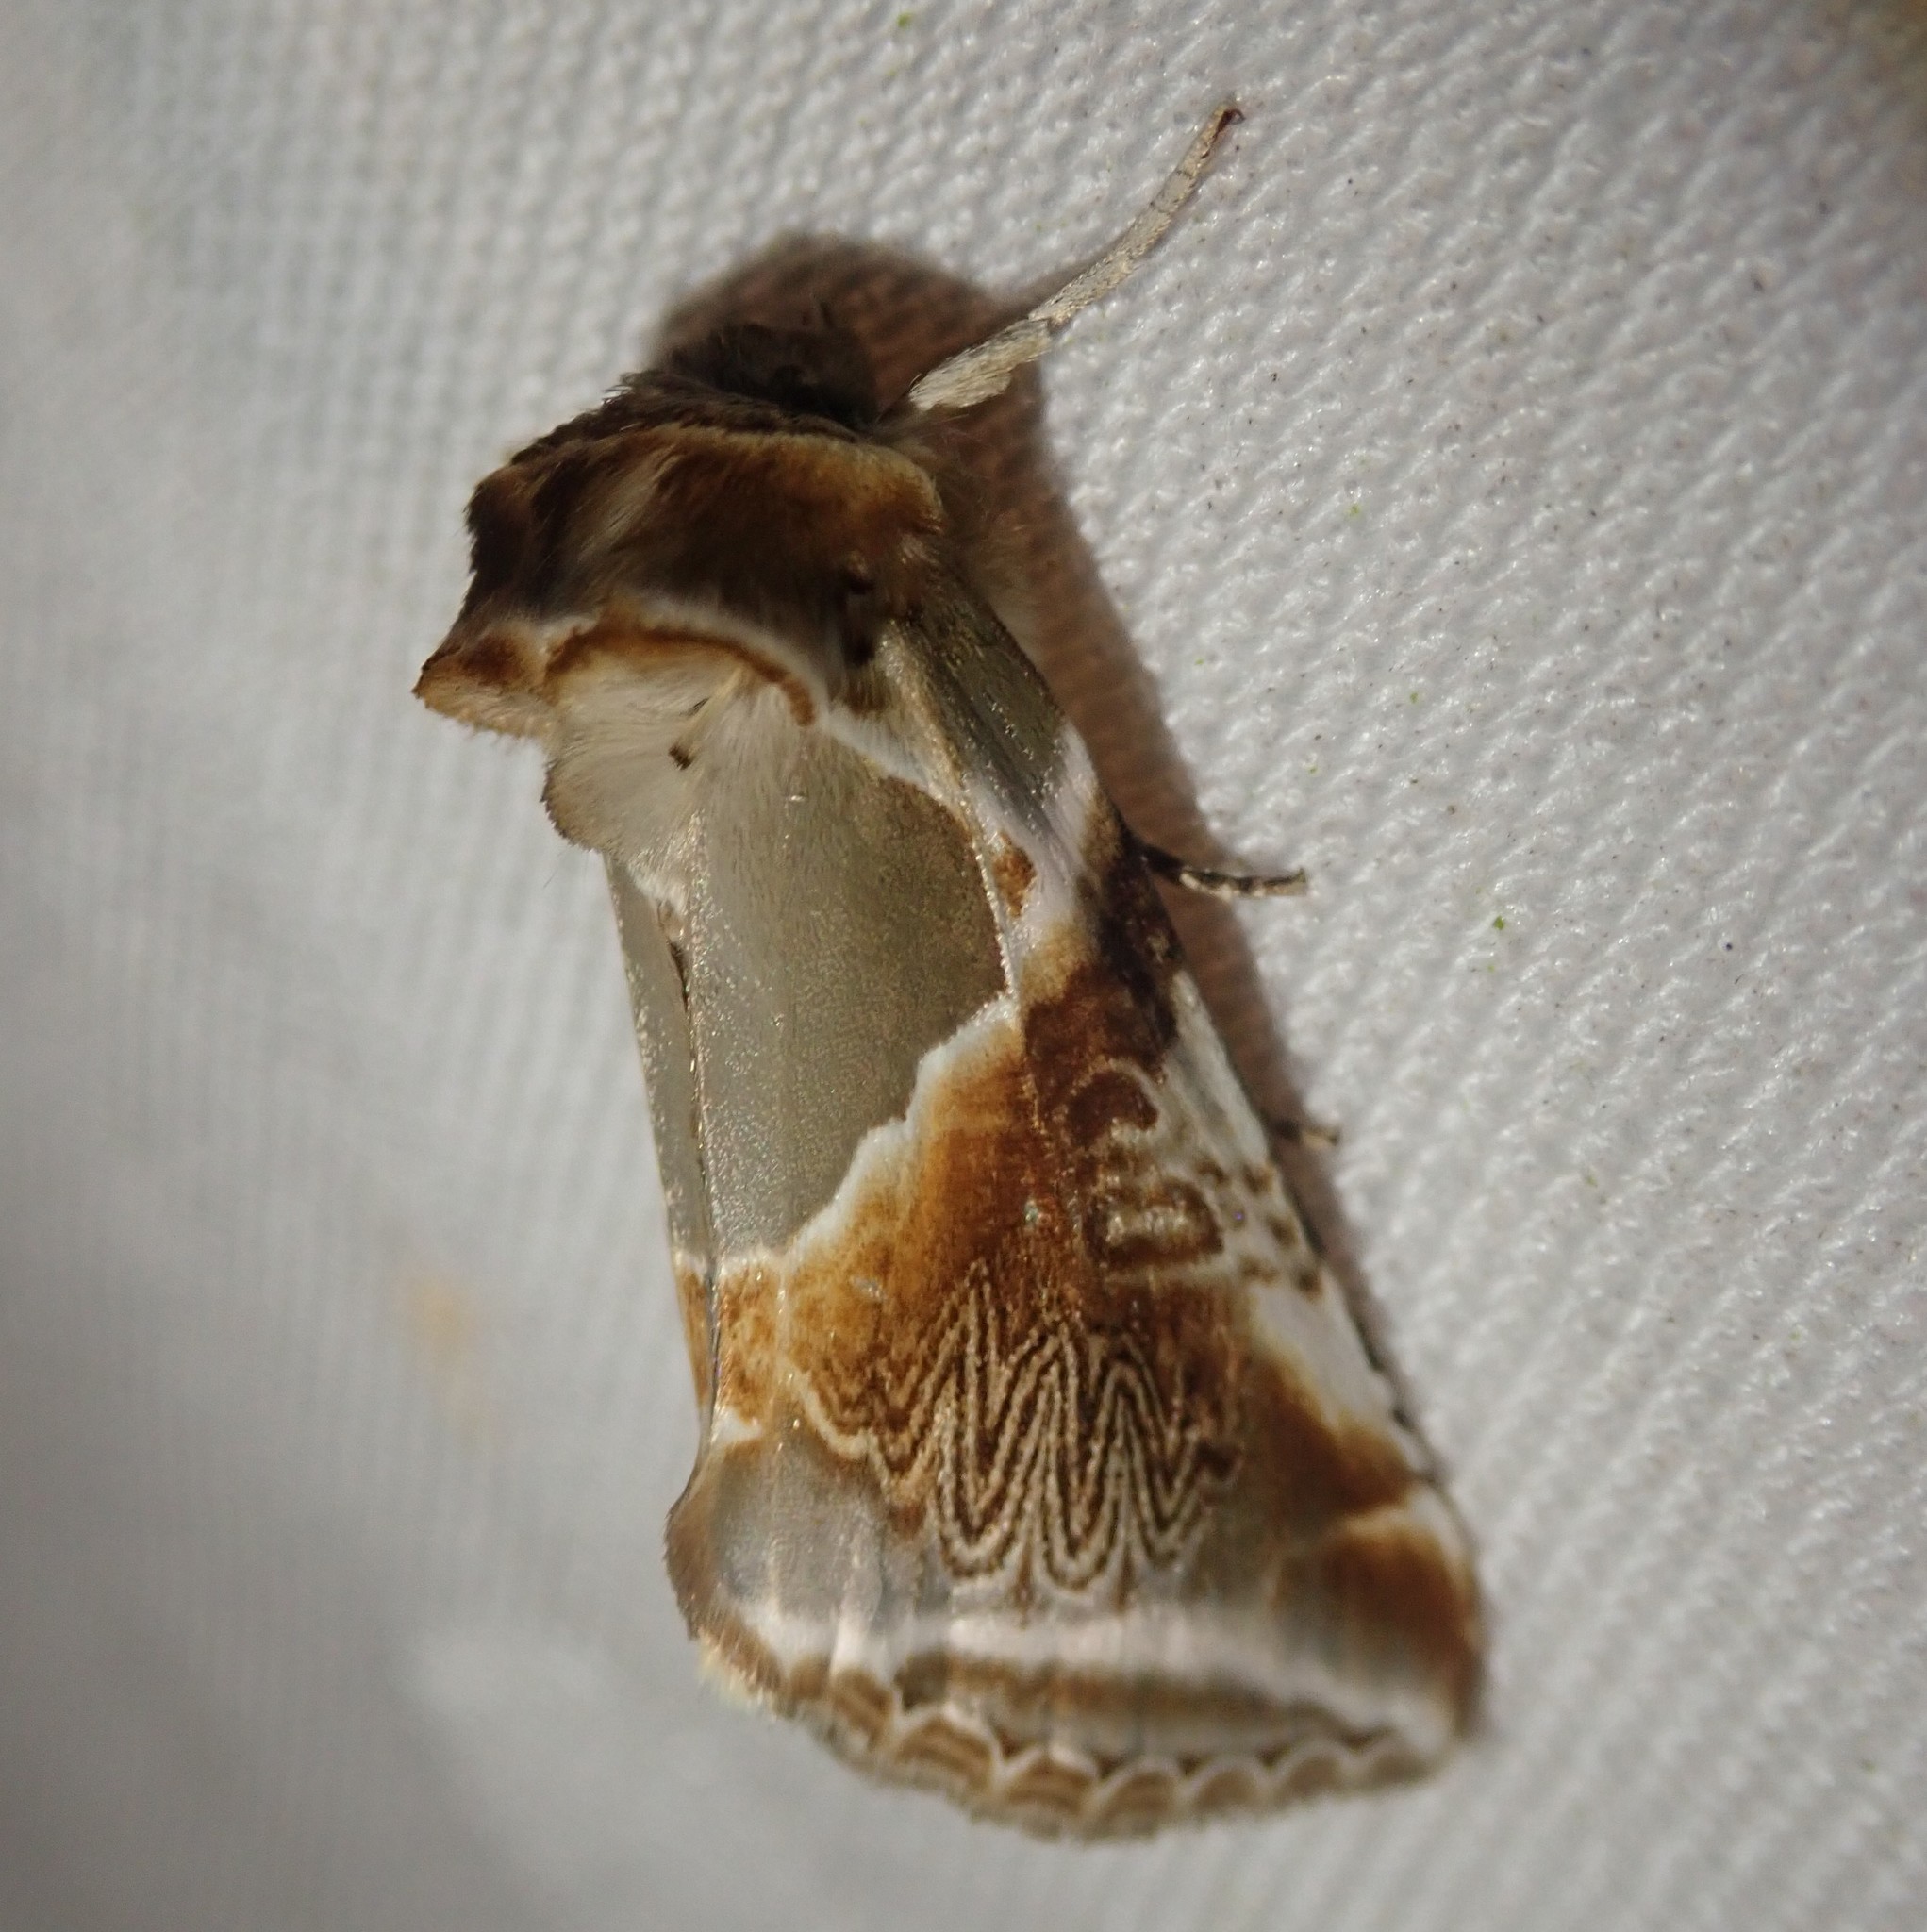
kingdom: Animalia
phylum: Arthropoda
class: Insecta
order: Lepidoptera
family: Drepanidae
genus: Habrosyne
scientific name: Habrosyne pyritoides
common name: Buff arches
